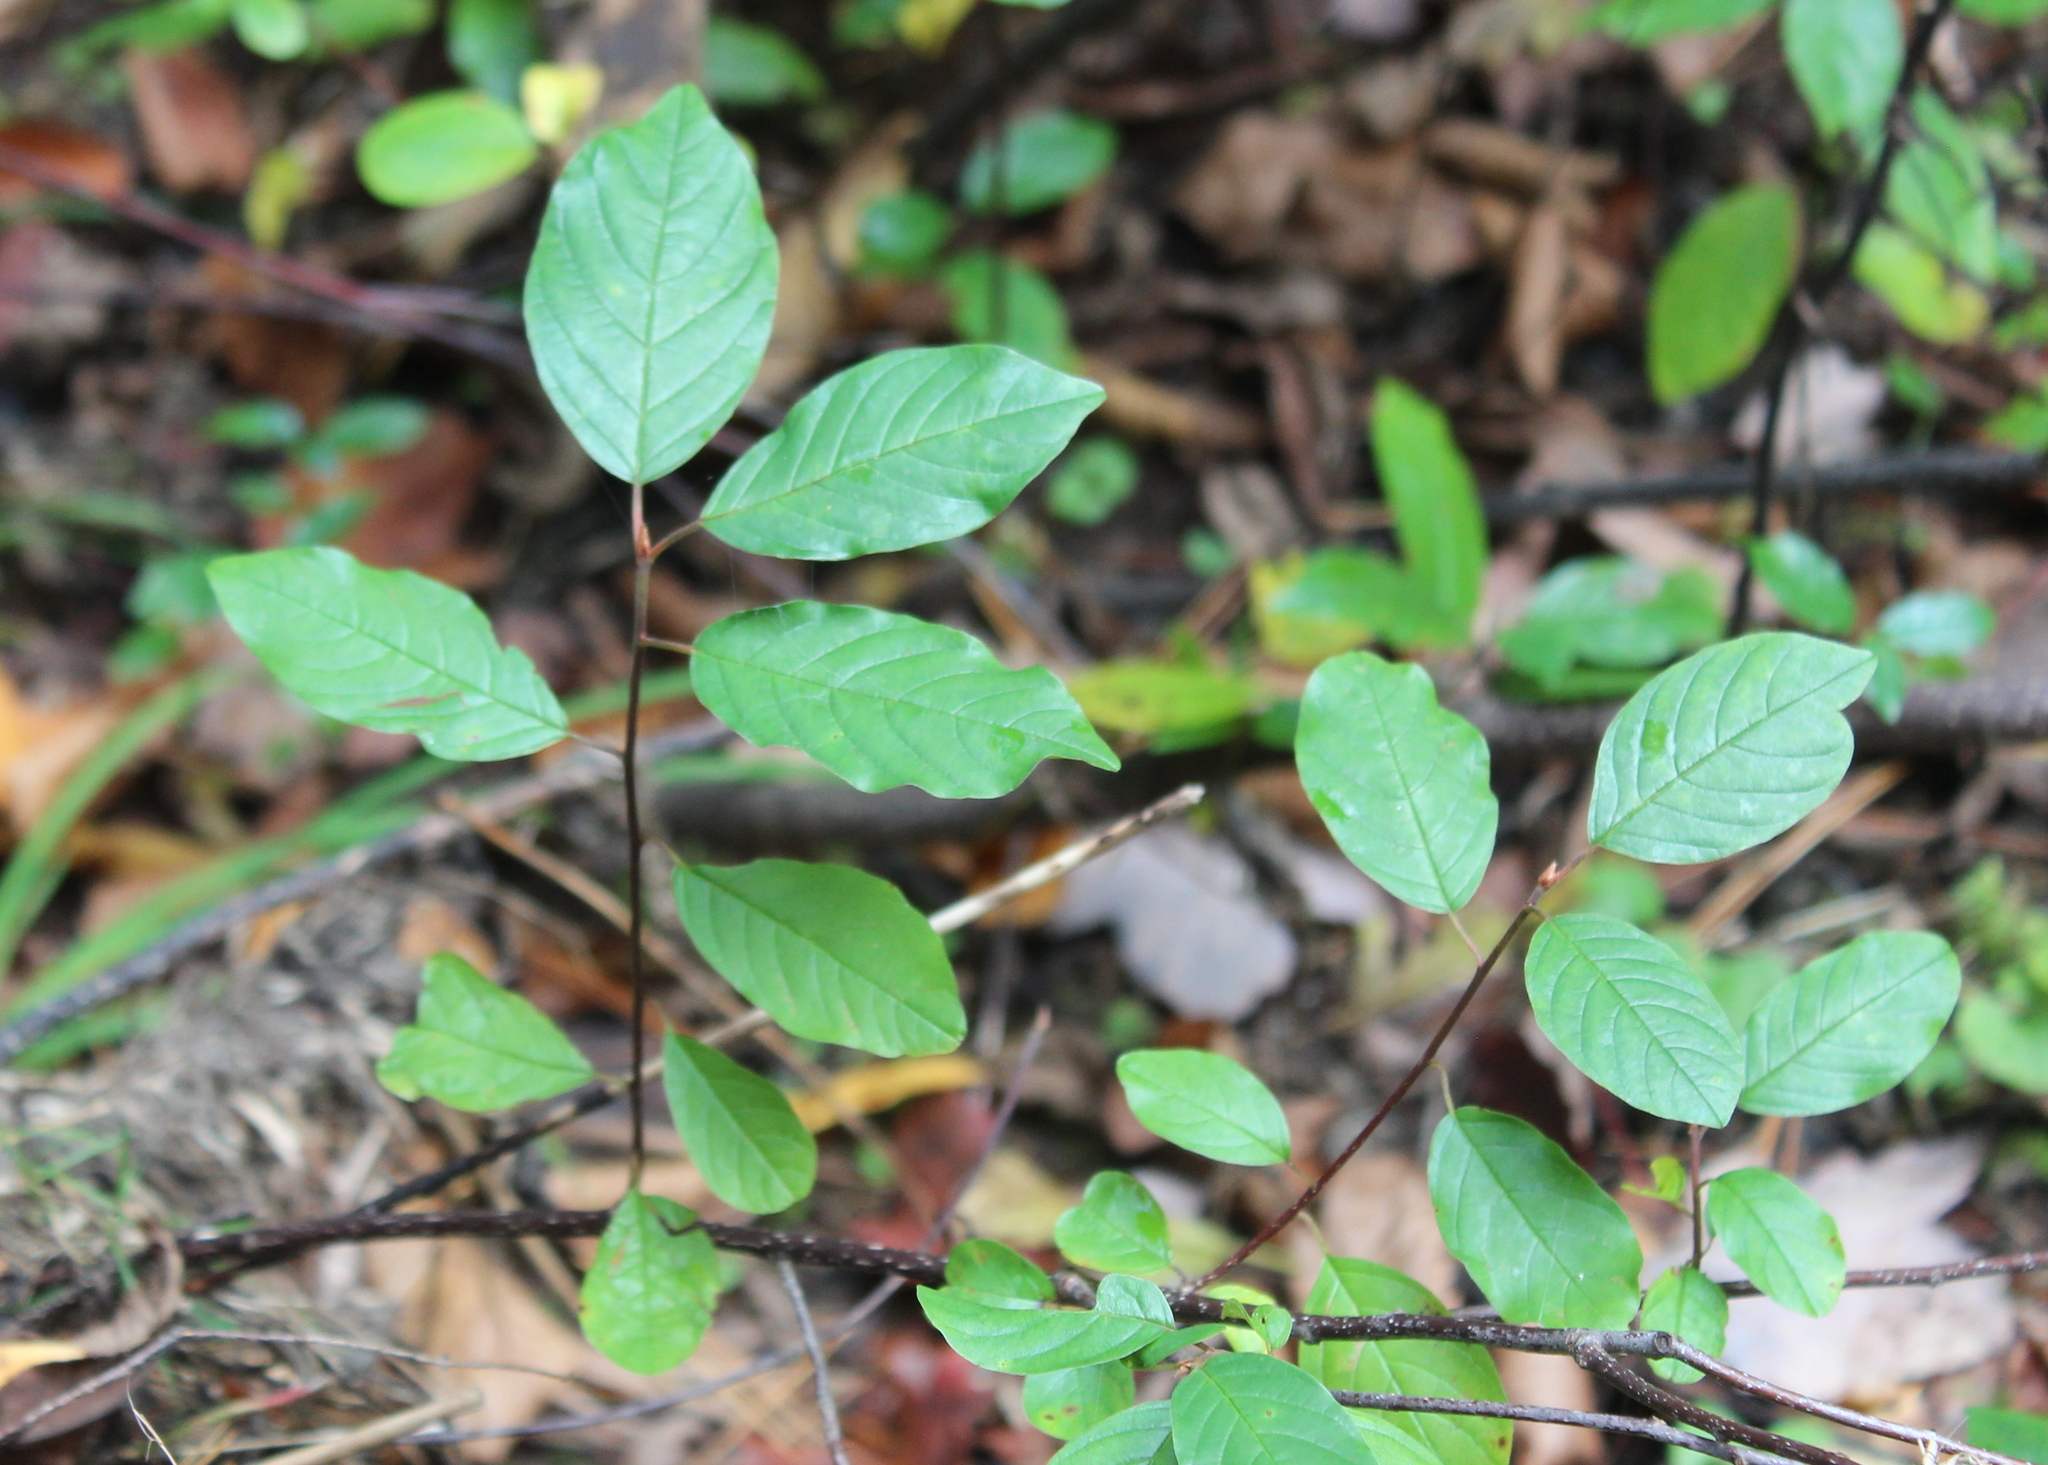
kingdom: Plantae
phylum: Tracheophyta
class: Magnoliopsida
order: Rosales
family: Rhamnaceae
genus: Frangula
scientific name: Frangula alnus
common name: Alder buckthorn
